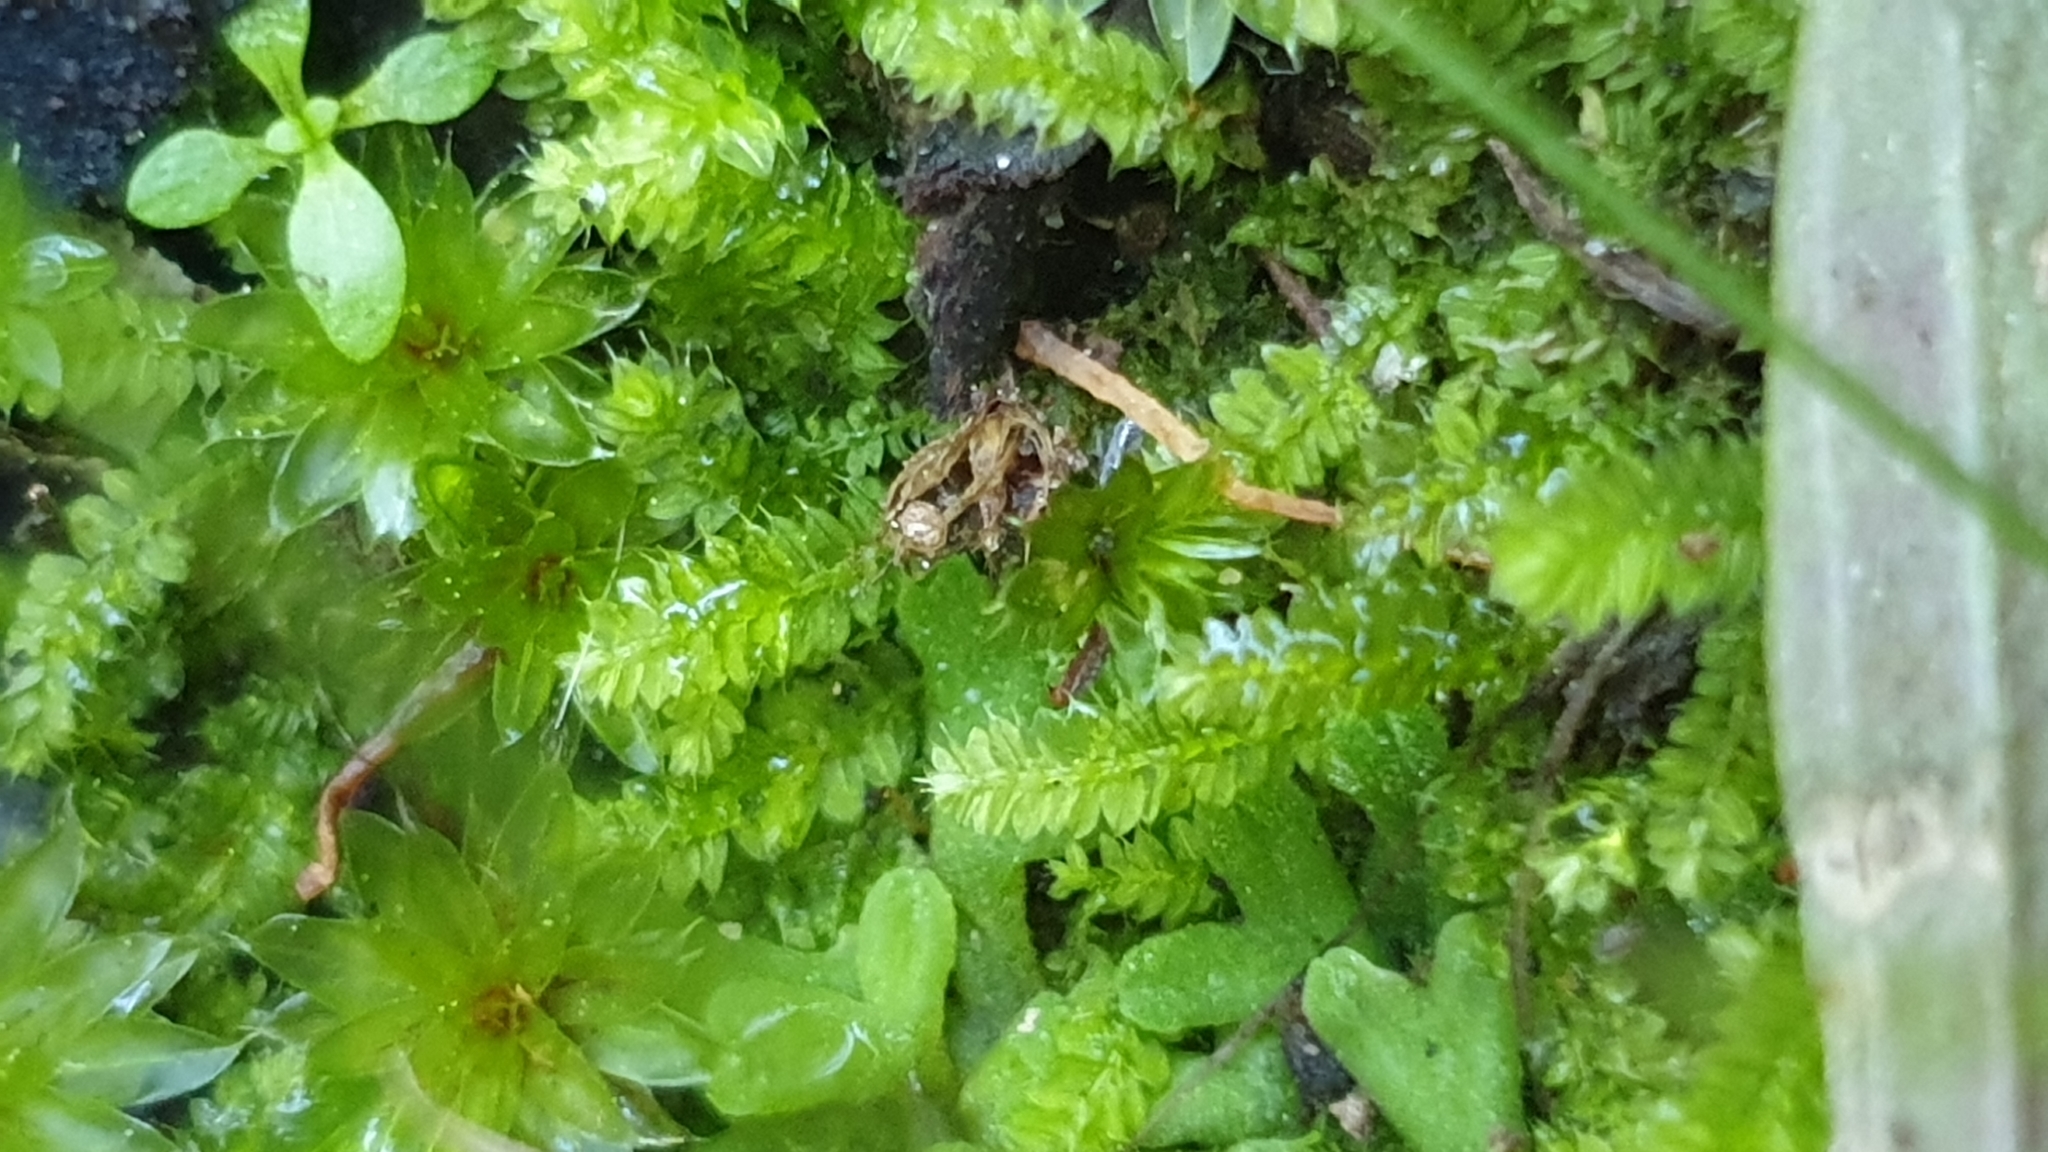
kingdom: Plantae
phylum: Bryophyta
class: Bryopsida
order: Hypnodendrales
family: Racopilaceae
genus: Racopilum
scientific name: Racopilum cuspidigerum
